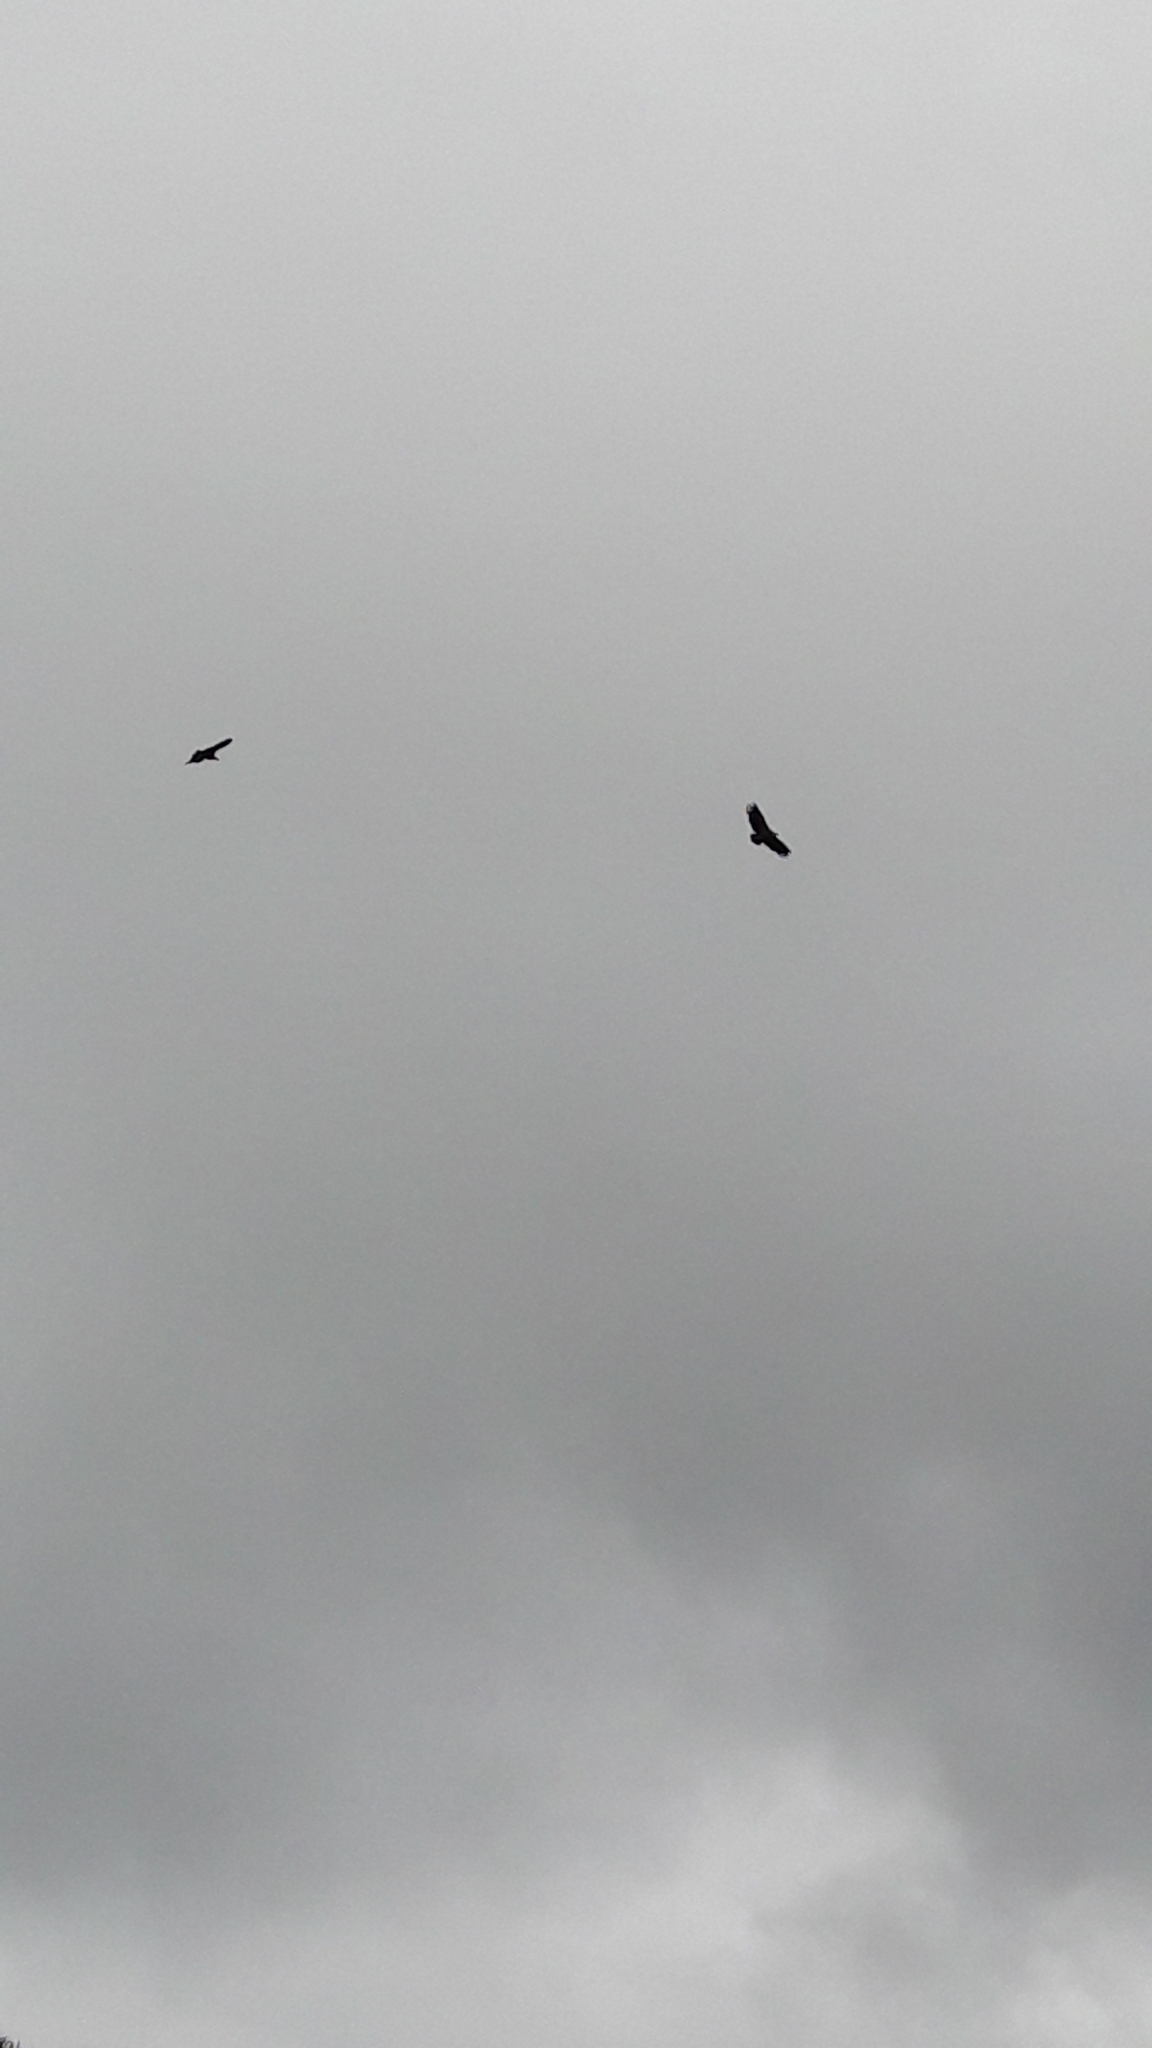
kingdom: Animalia
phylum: Chordata
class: Aves
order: Accipitriformes
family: Accipitridae
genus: Gyps
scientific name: Gyps fulvus
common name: Griffon vulture
